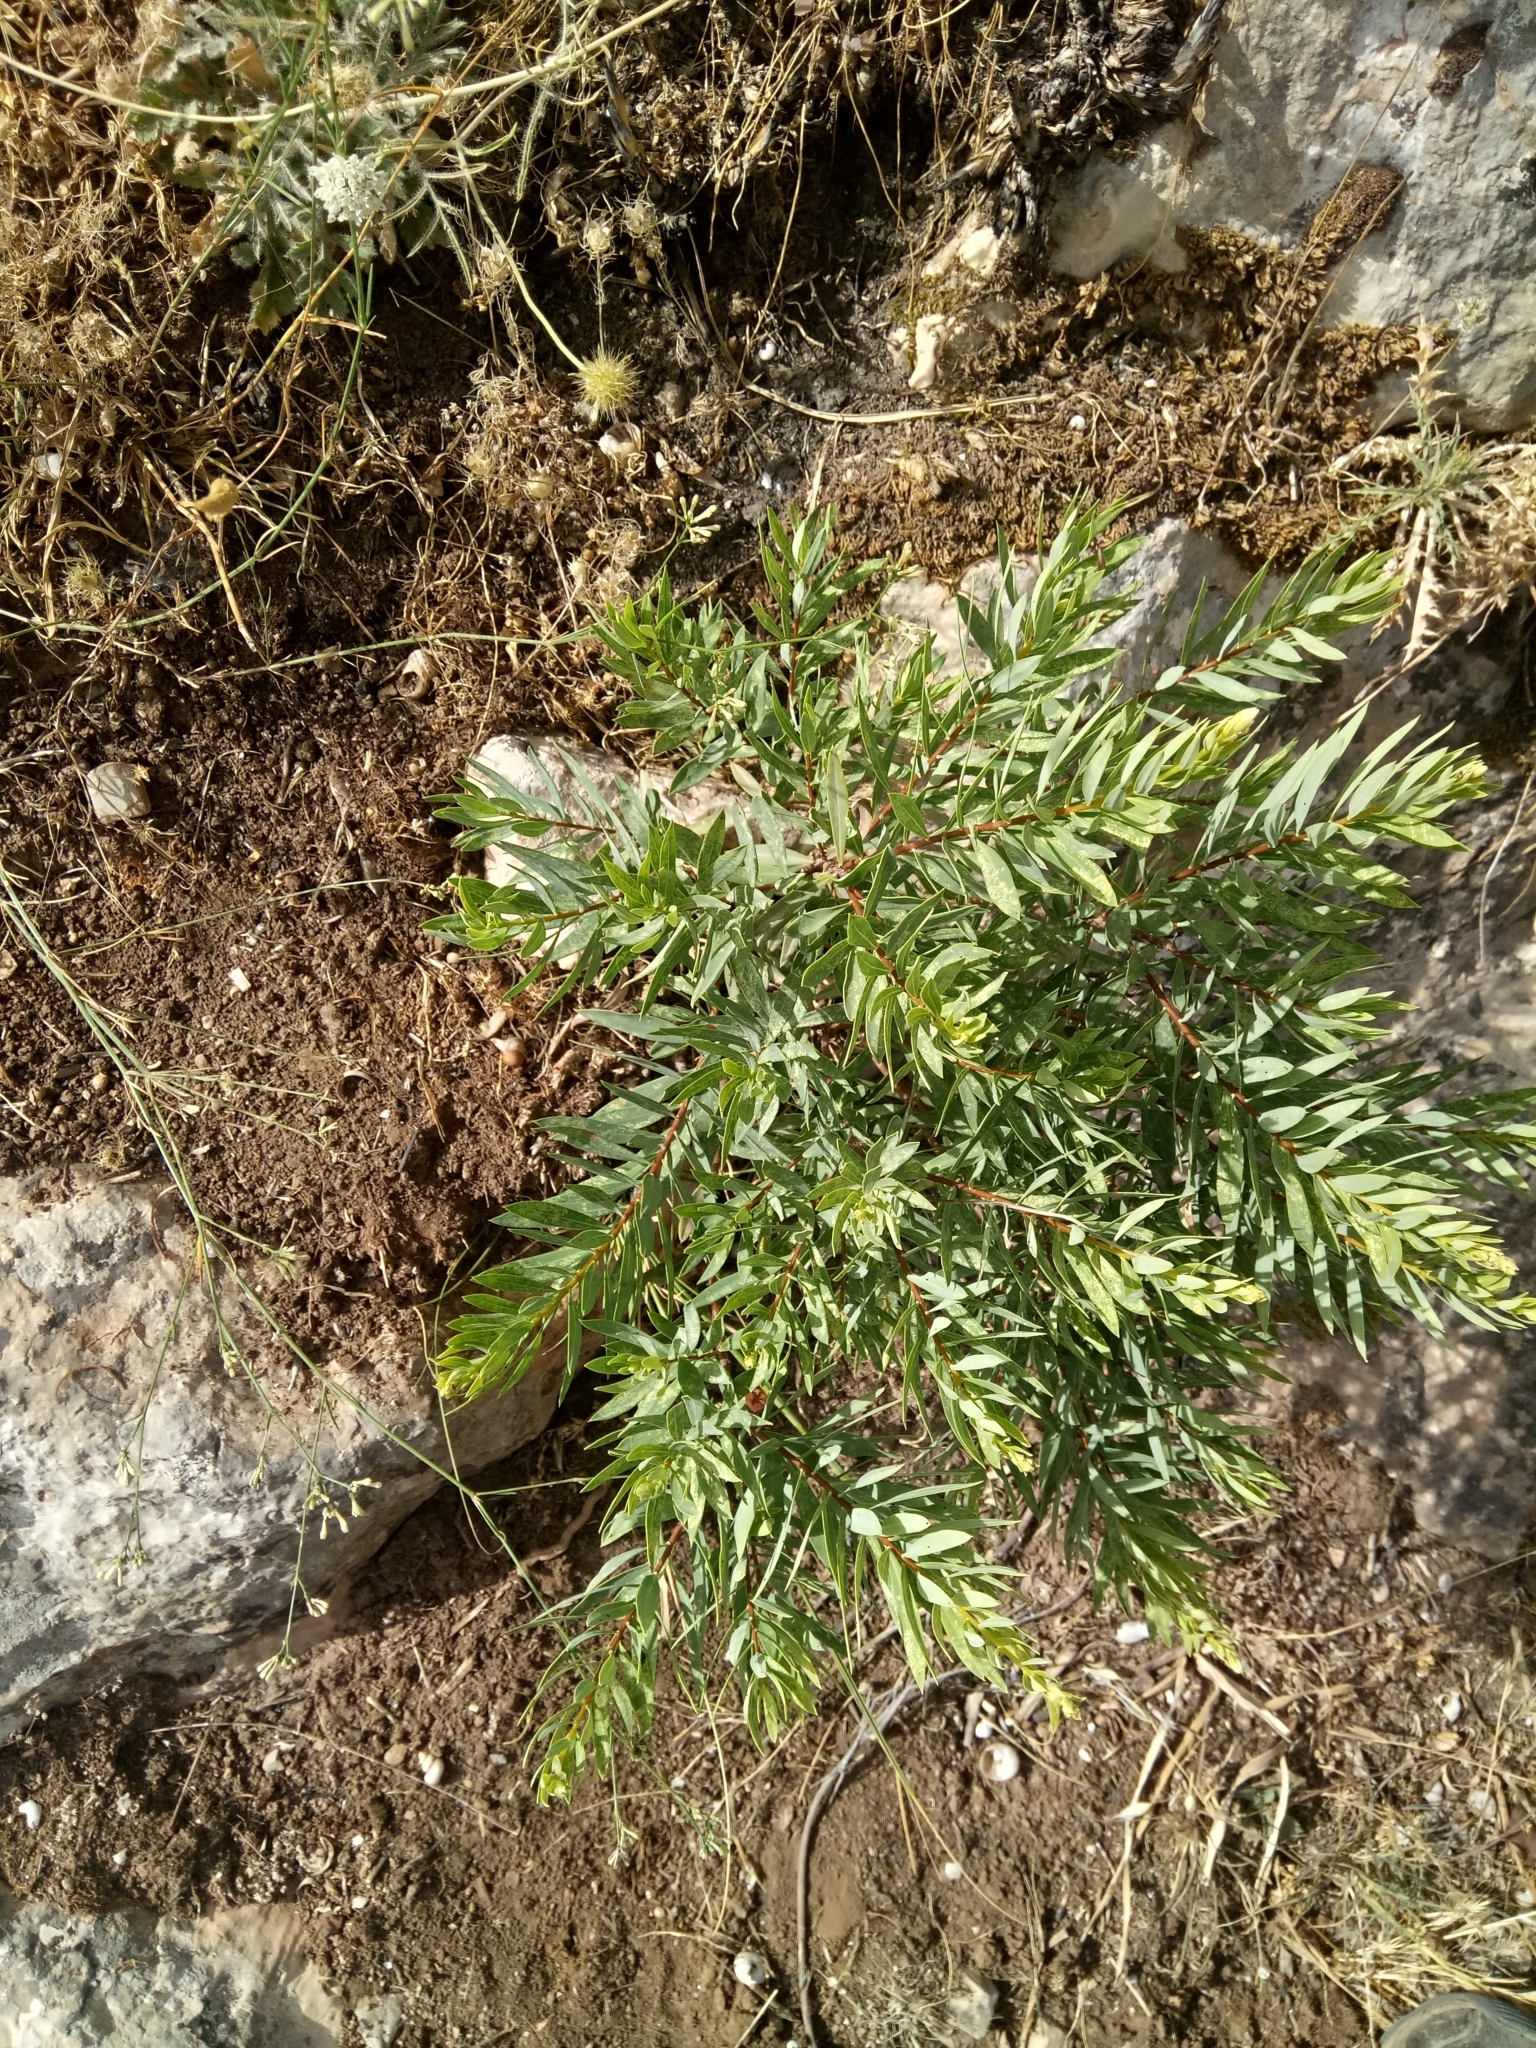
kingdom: Plantae
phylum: Tracheophyta
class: Magnoliopsida
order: Malvales
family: Thymelaeaceae
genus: Daphne
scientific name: Daphne gnidium
